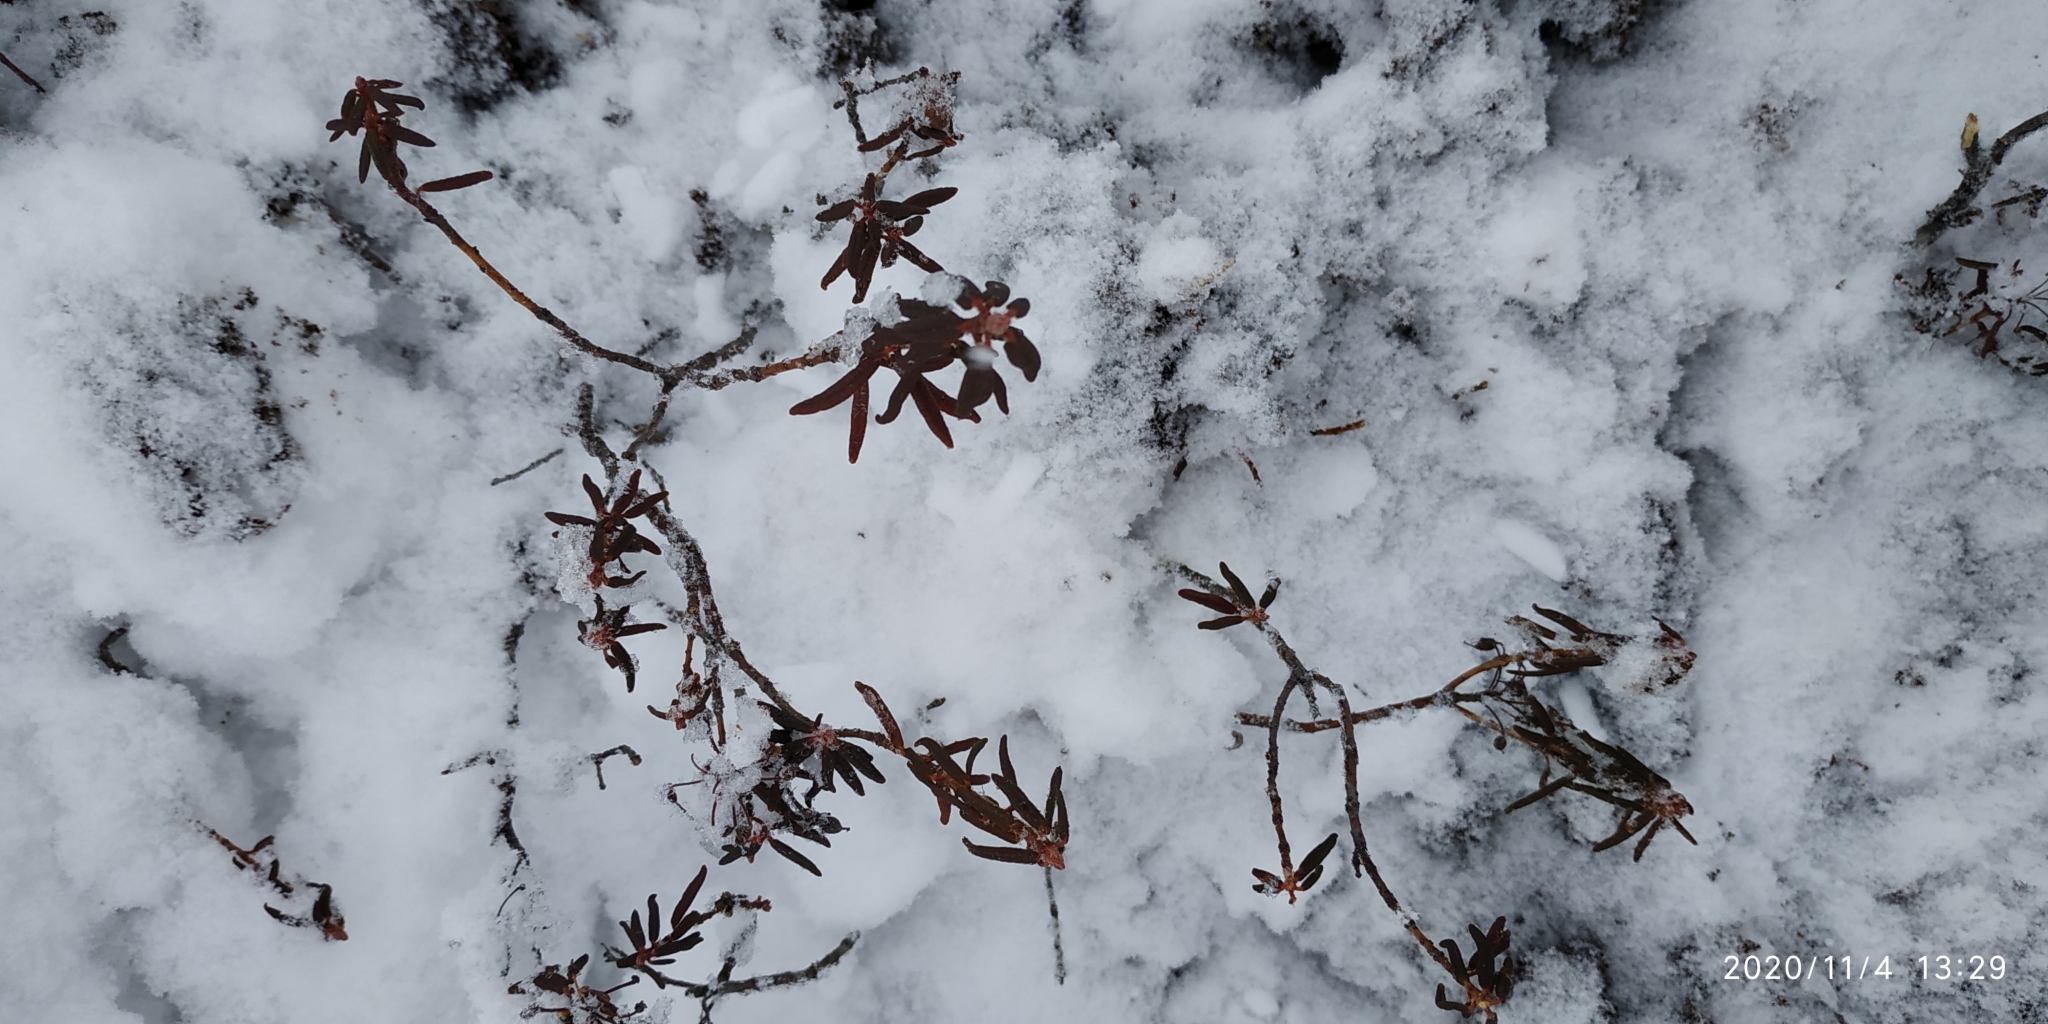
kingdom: Plantae
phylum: Tracheophyta
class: Magnoliopsida
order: Ericales
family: Ericaceae
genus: Rhododendron
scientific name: Rhododendron tomentosum
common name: Marsh labrador tea
